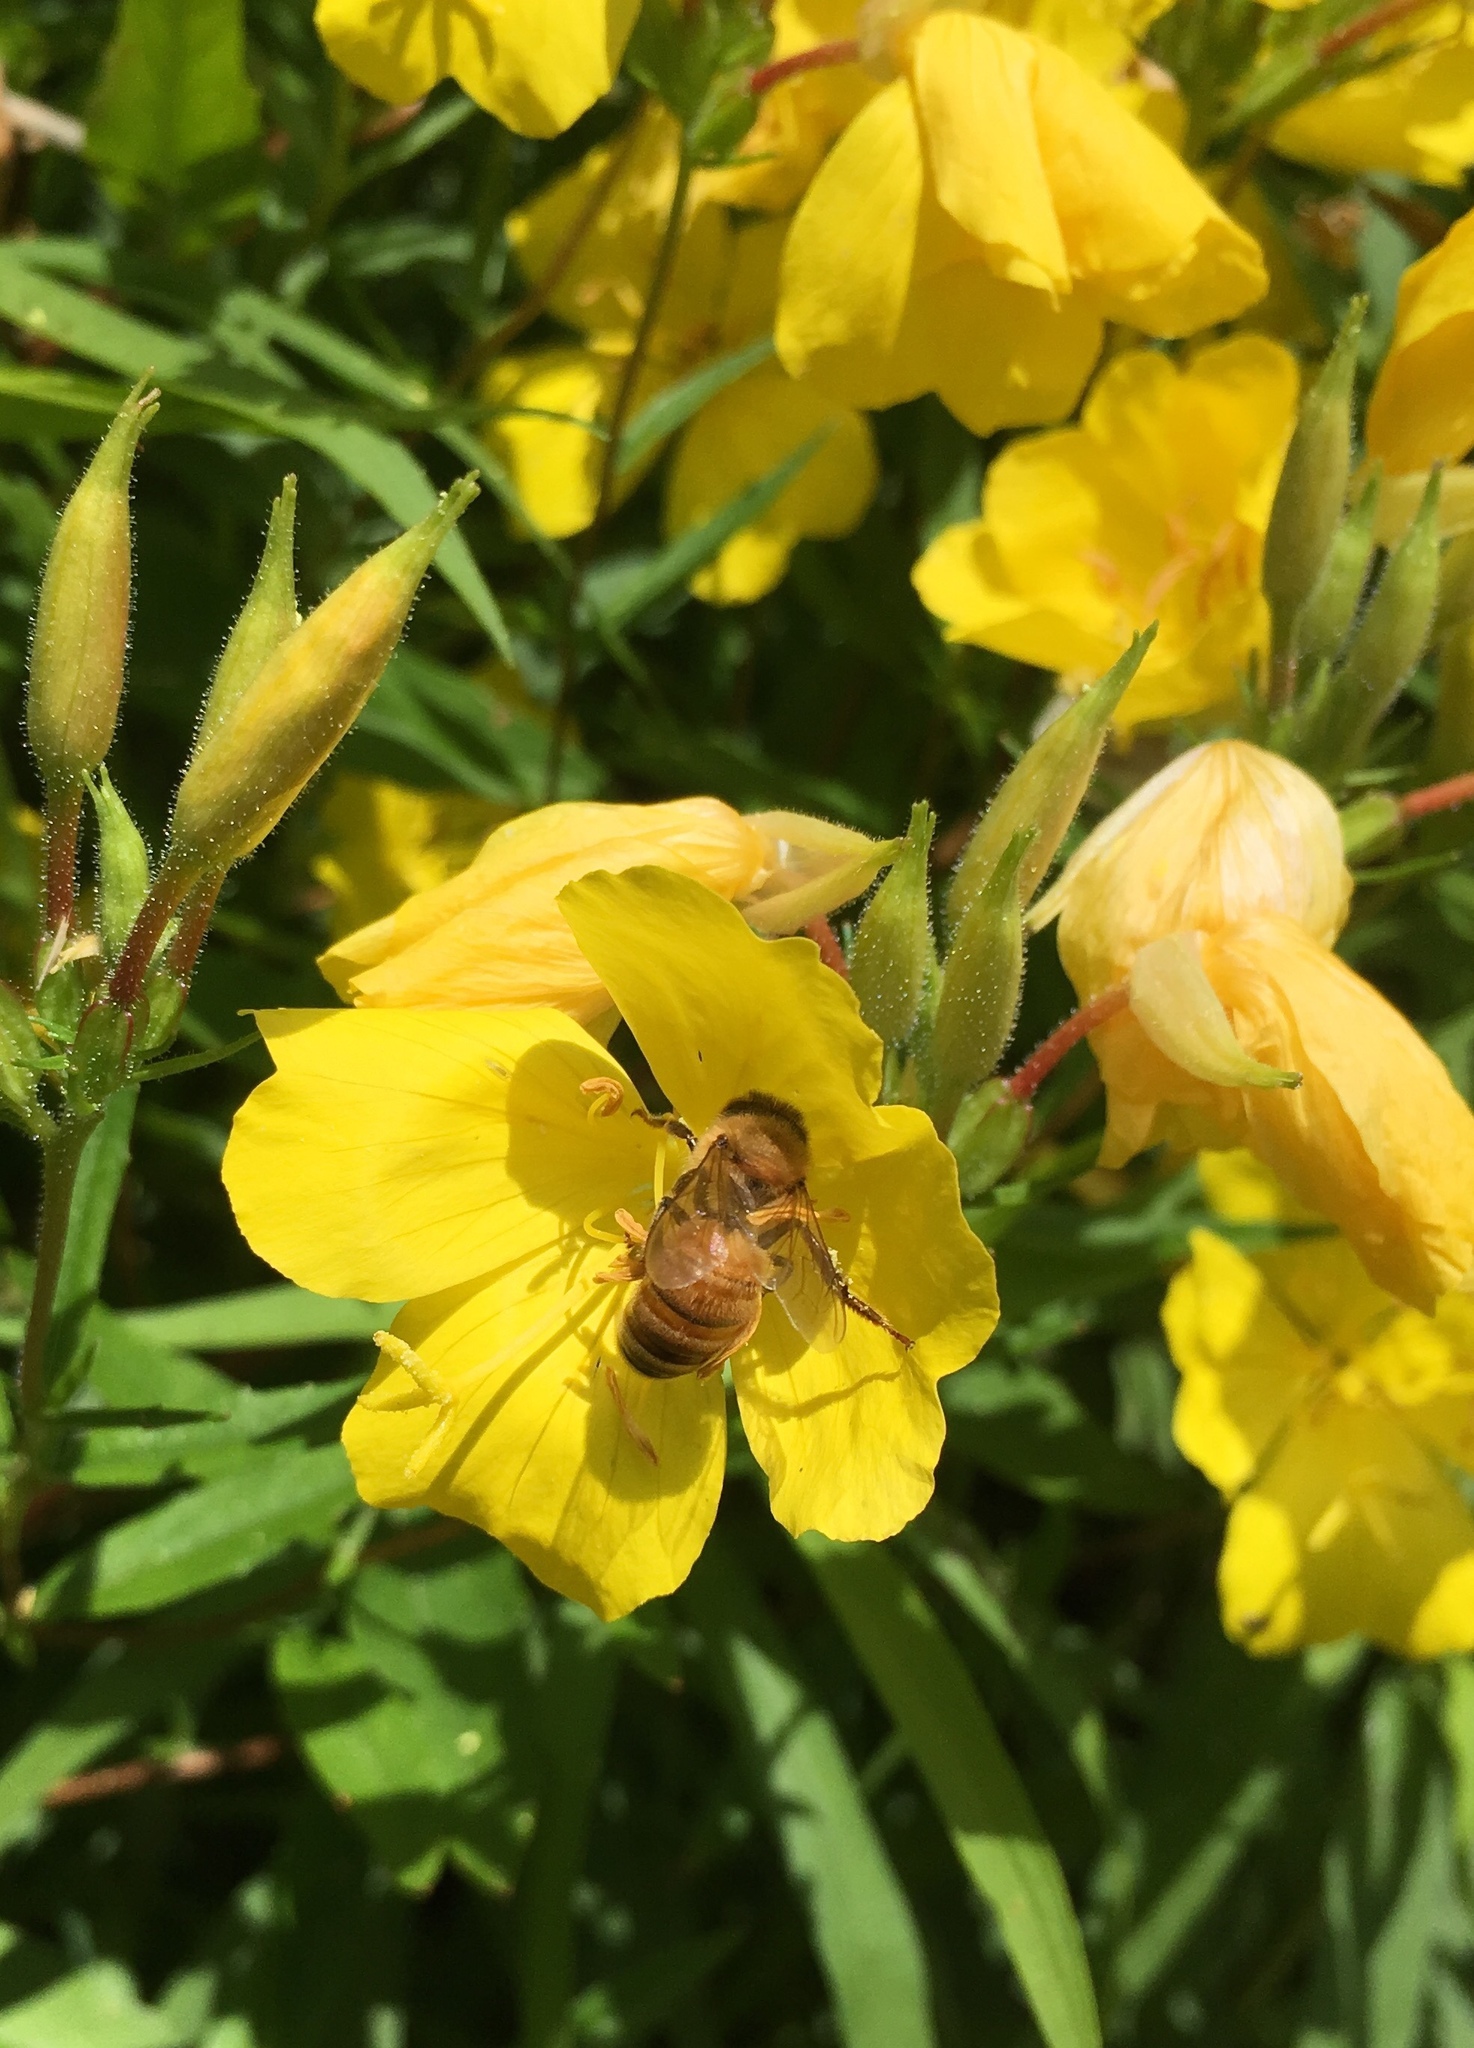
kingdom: Animalia
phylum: Arthropoda
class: Insecta
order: Hymenoptera
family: Apidae
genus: Apis
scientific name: Apis mellifera
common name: Honey bee
